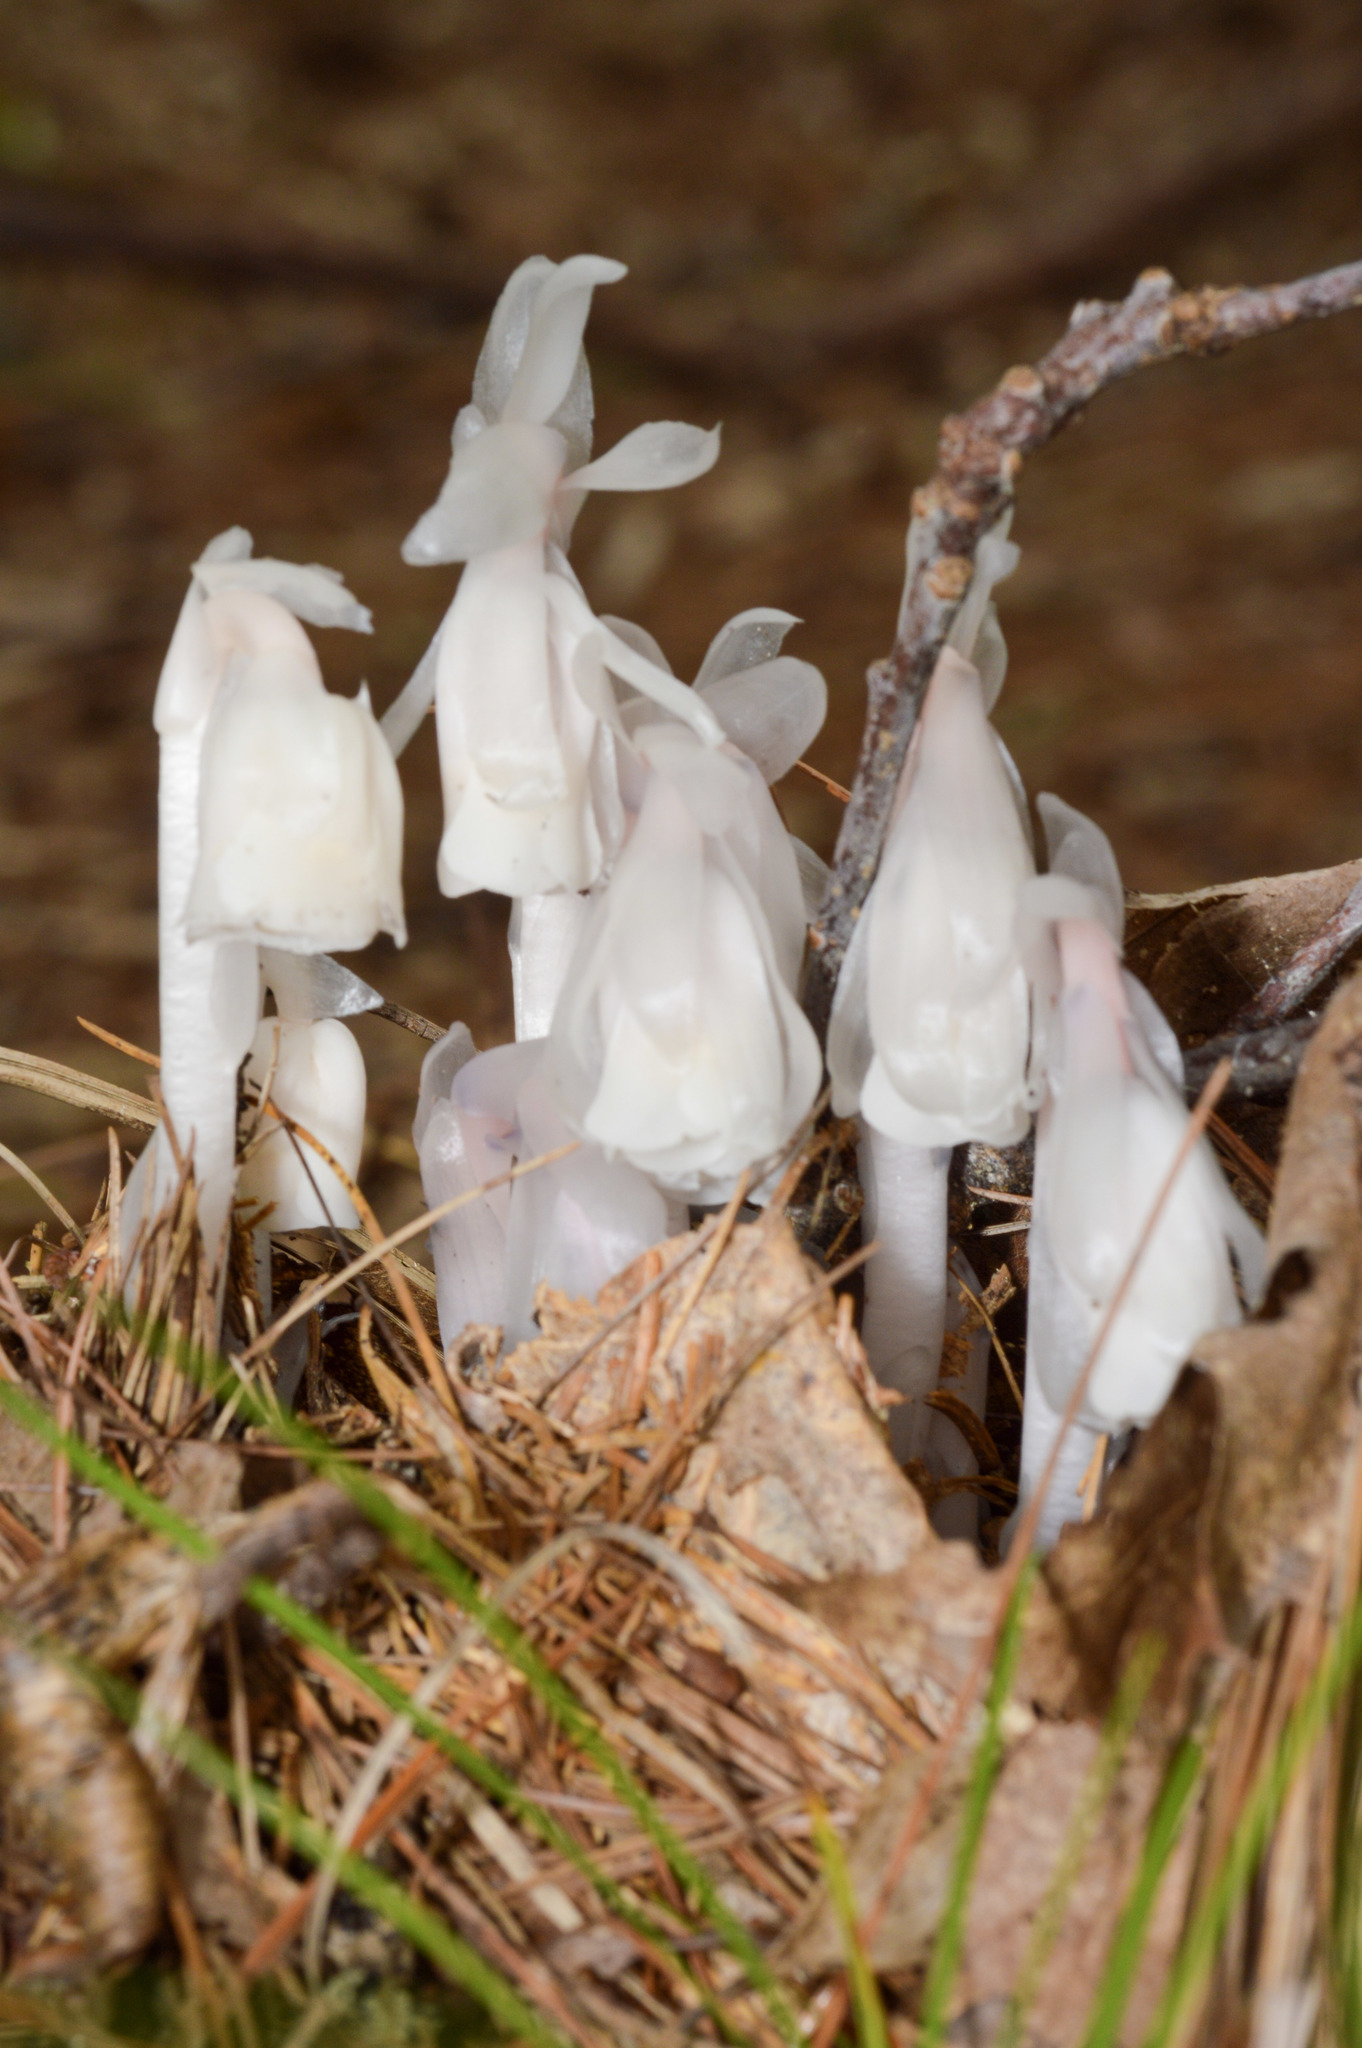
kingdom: Plantae
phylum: Tracheophyta
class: Magnoliopsida
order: Ericales
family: Ericaceae
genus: Monotropa
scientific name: Monotropa uniflora
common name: Convulsion root
